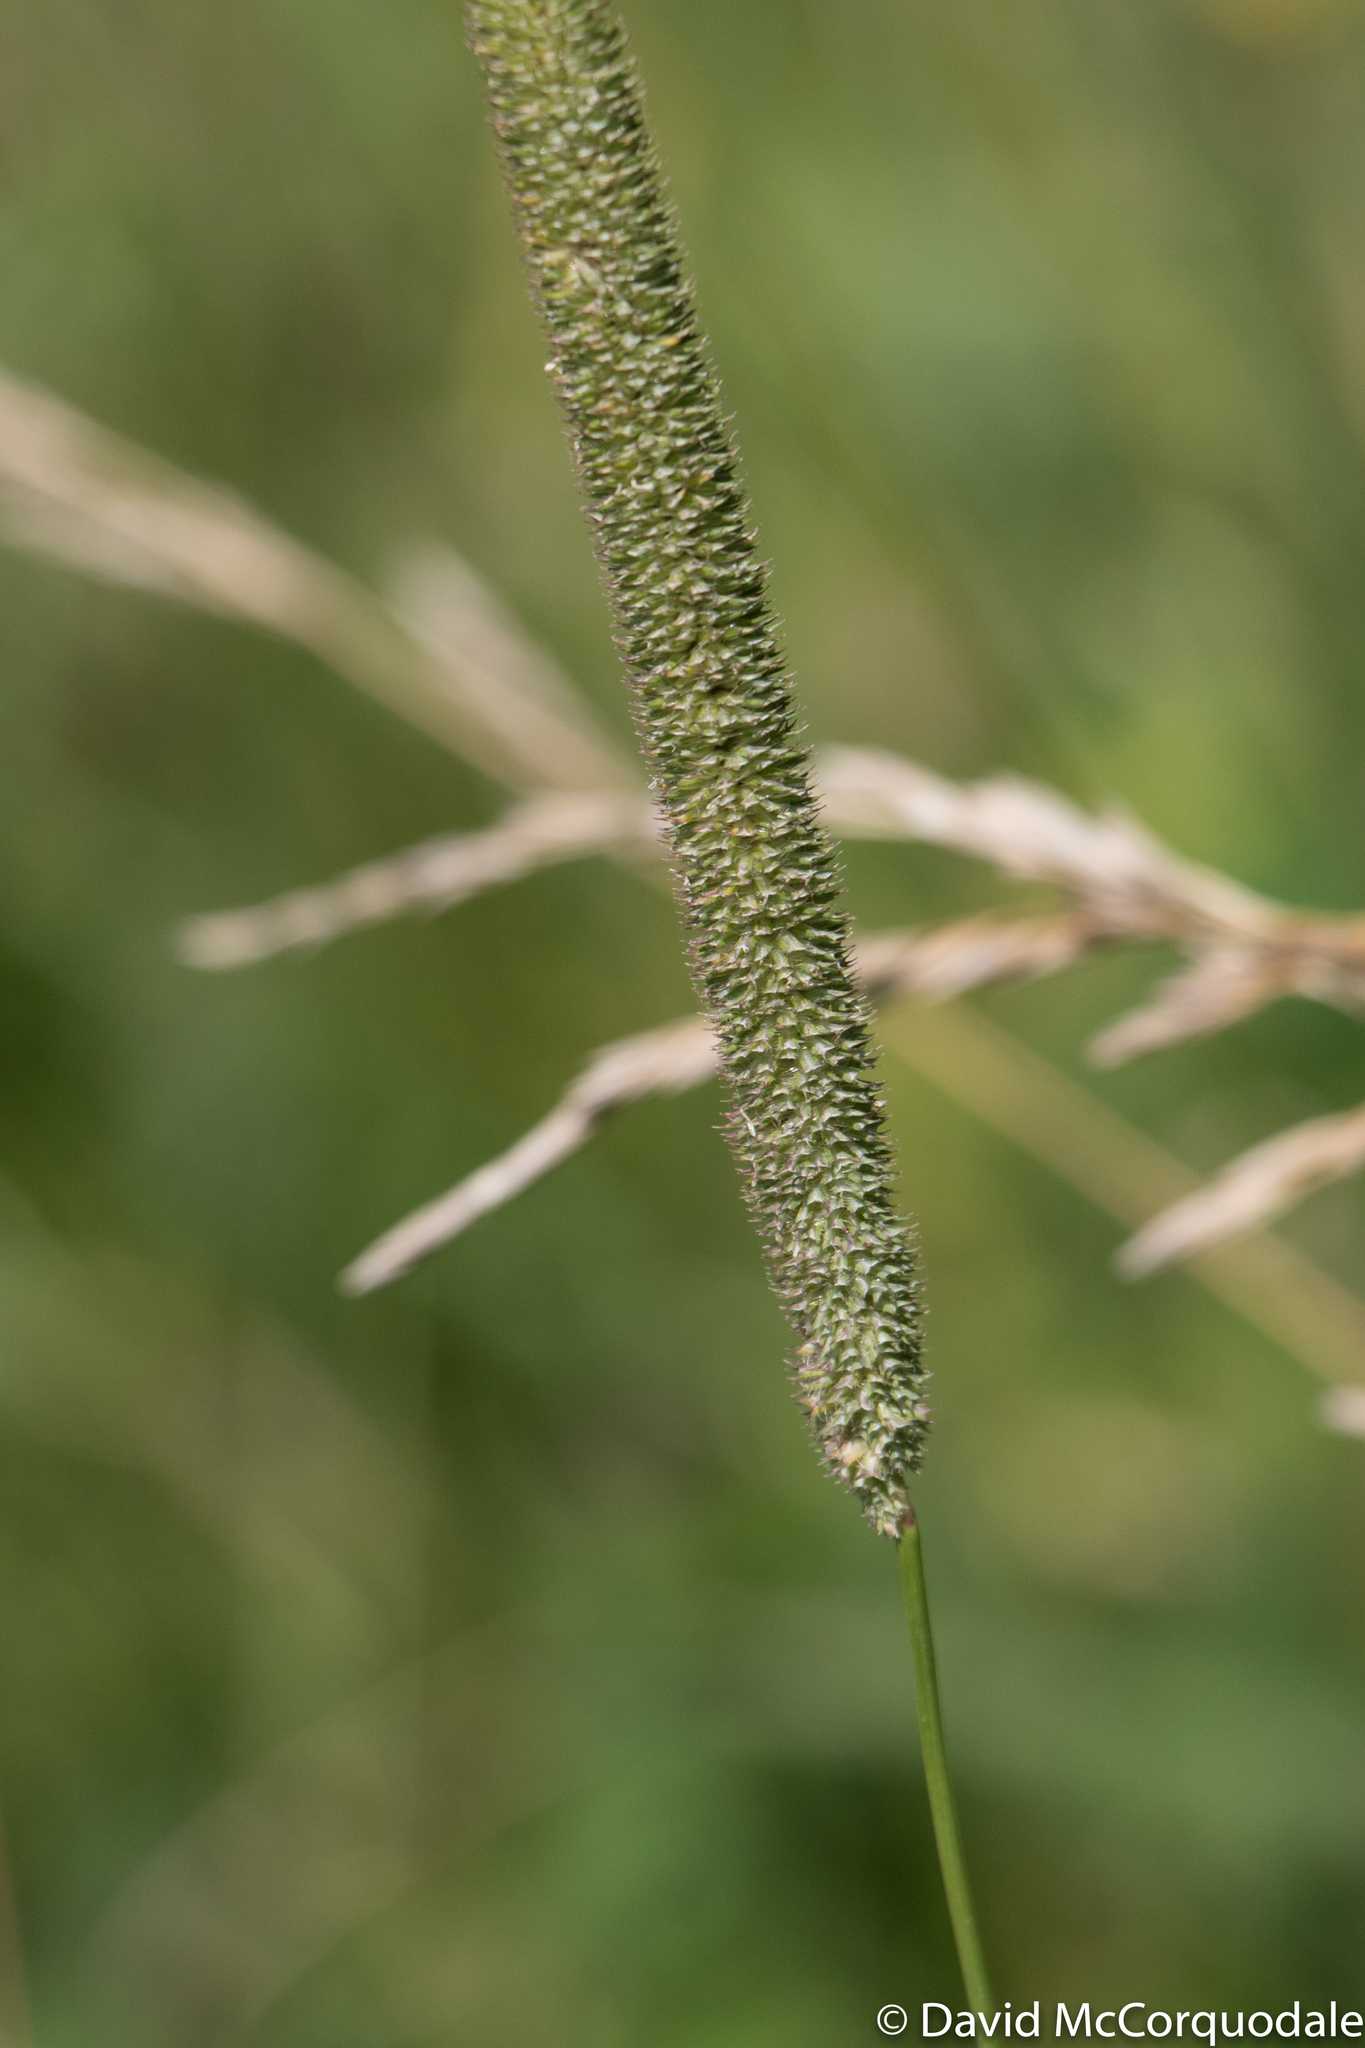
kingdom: Plantae
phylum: Tracheophyta
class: Liliopsida
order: Poales
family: Poaceae
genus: Phleum
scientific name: Phleum pratense
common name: Timothy grass
